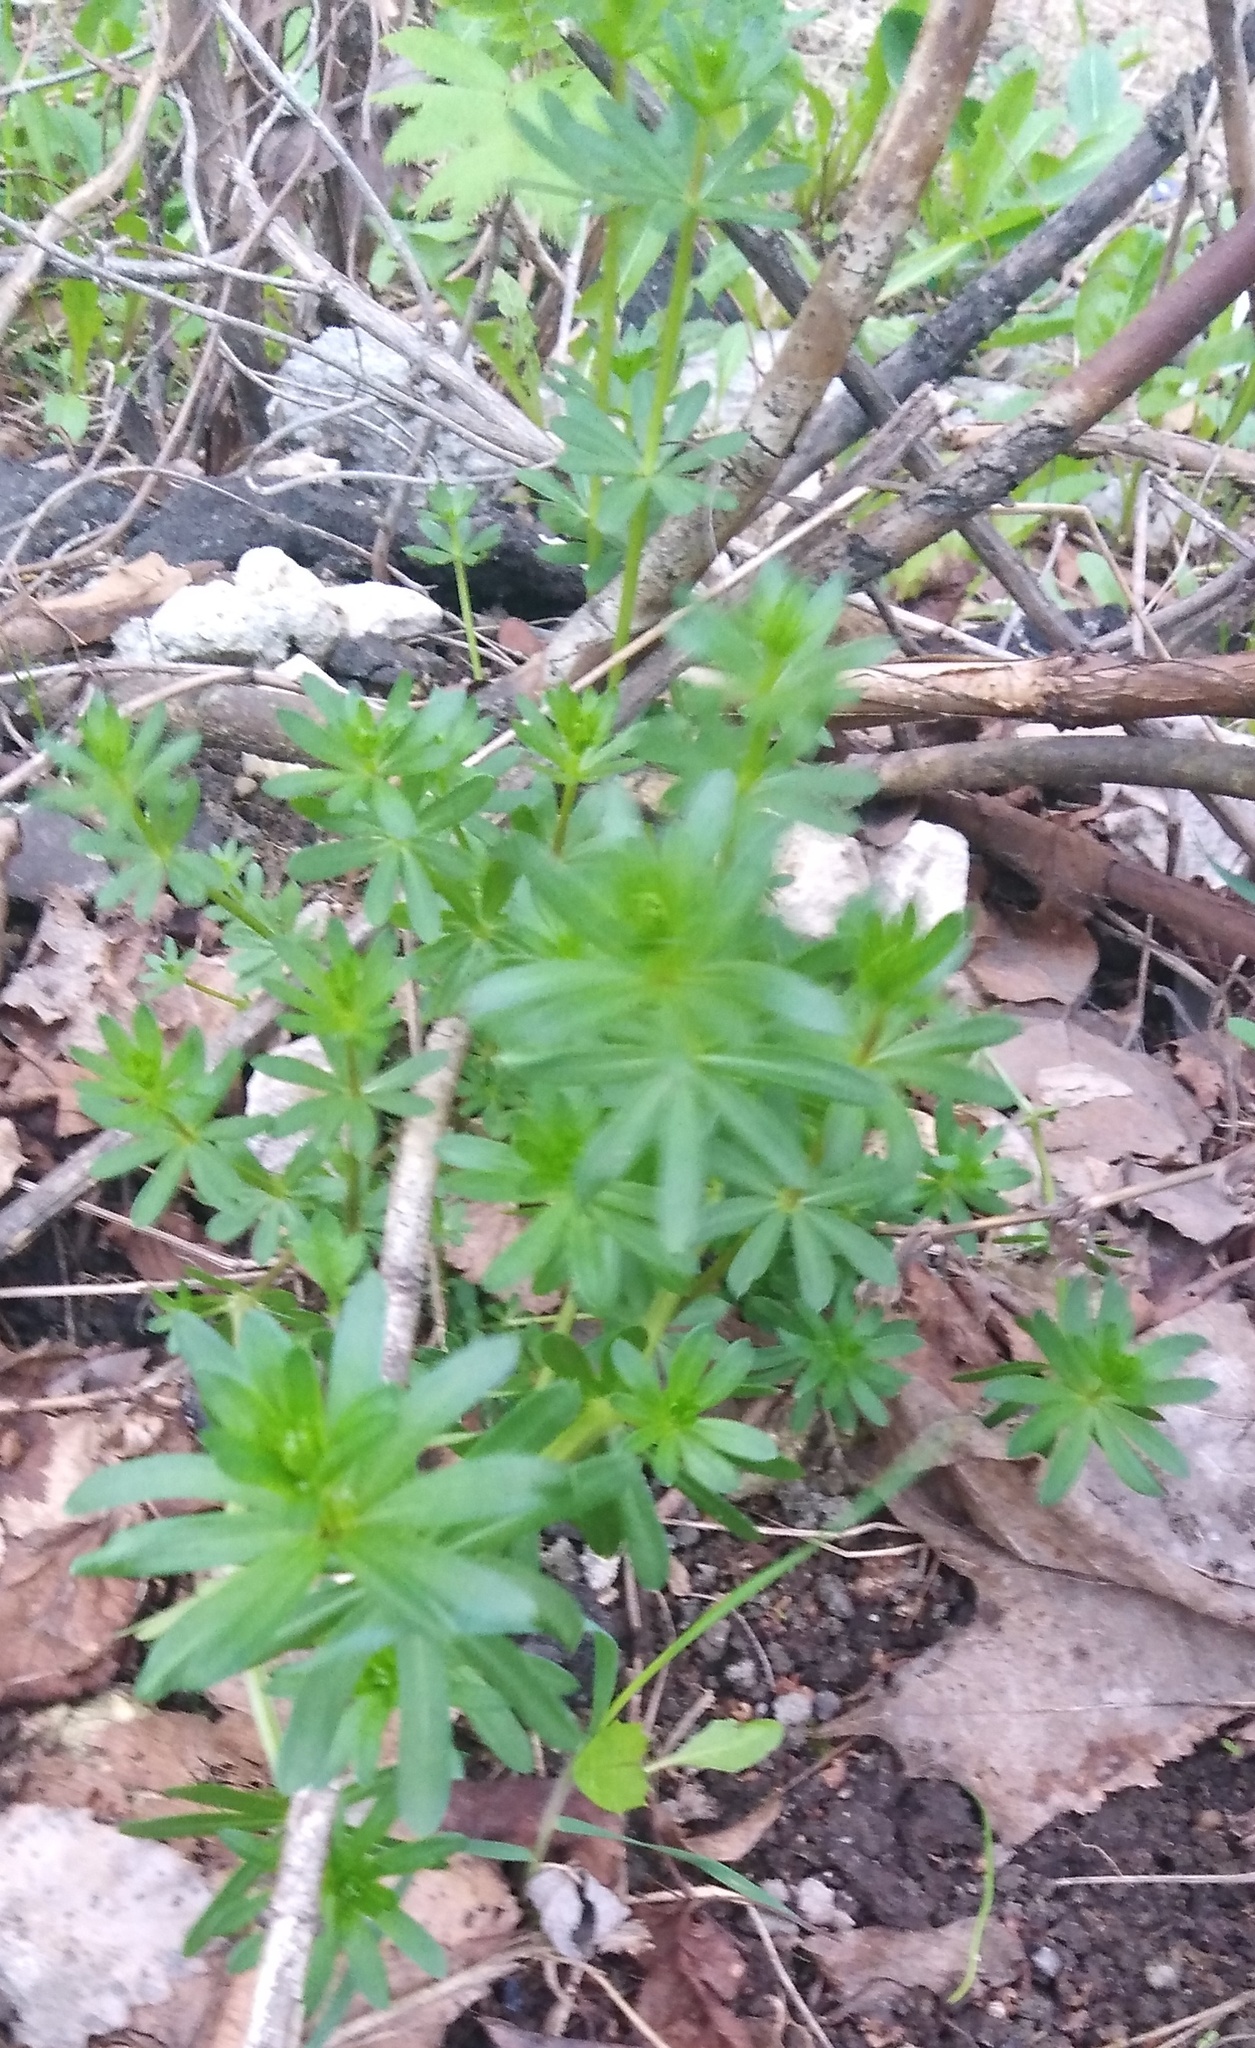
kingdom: Plantae
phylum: Tracheophyta
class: Magnoliopsida
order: Gentianales
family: Rubiaceae
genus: Galium
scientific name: Galium mollugo
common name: Hedge bedstraw
